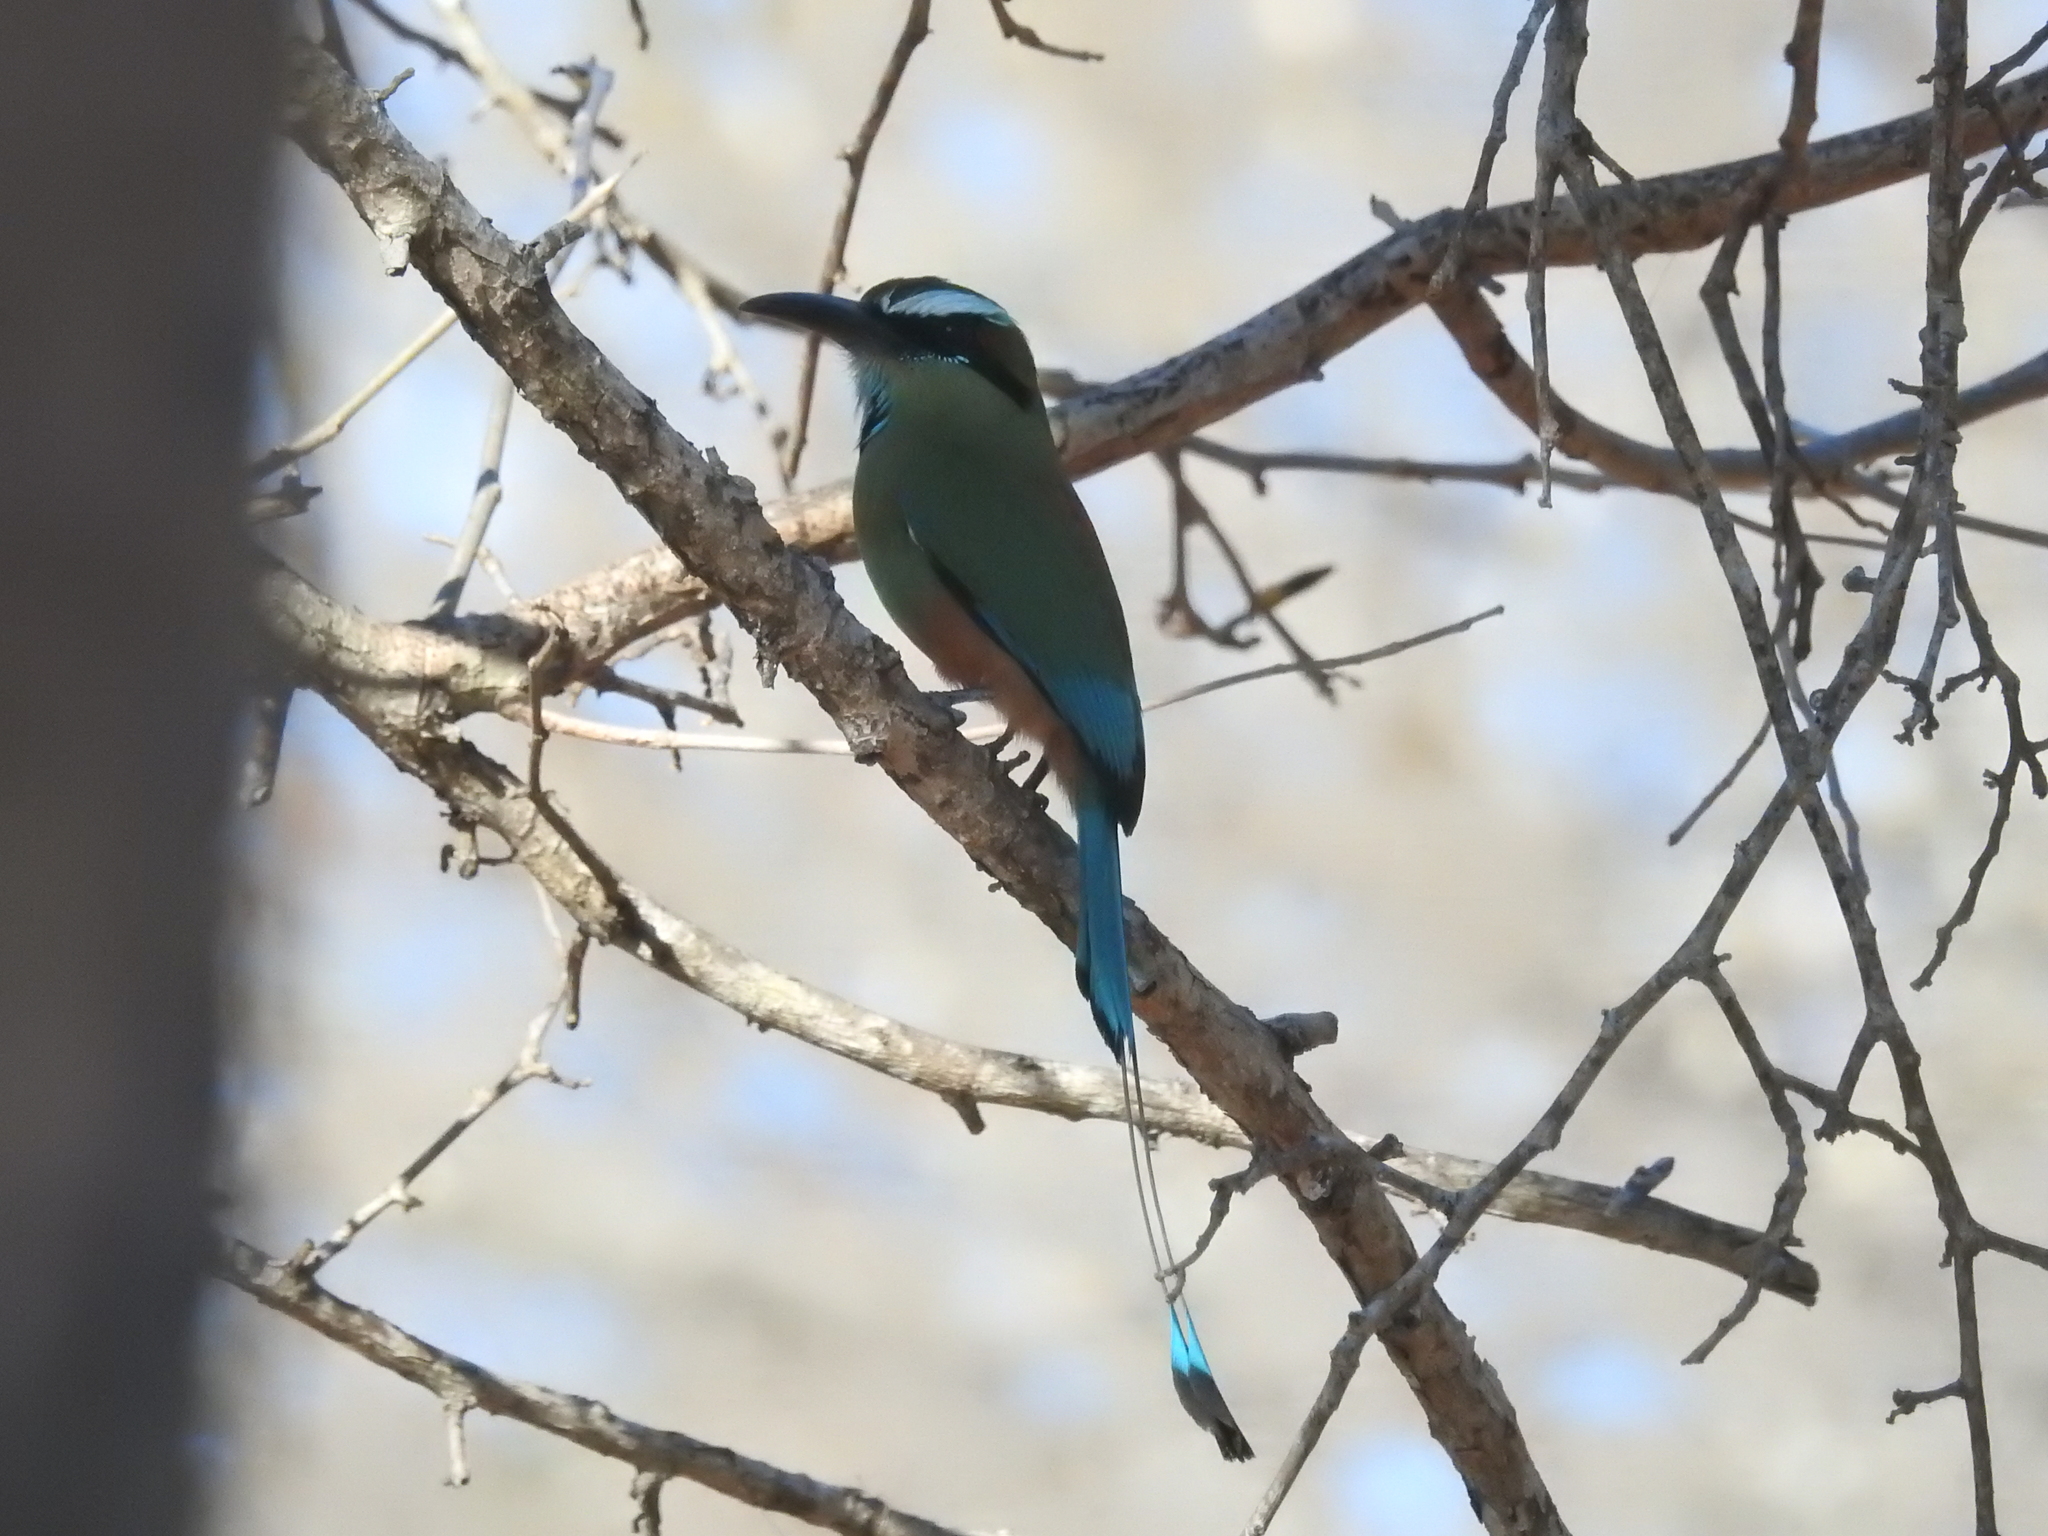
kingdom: Animalia
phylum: Chordata
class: Aves
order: Coraciiformes
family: Momotidae
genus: Eumomota
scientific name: Eumomota superciliosa
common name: Turquoise-browed motmot
